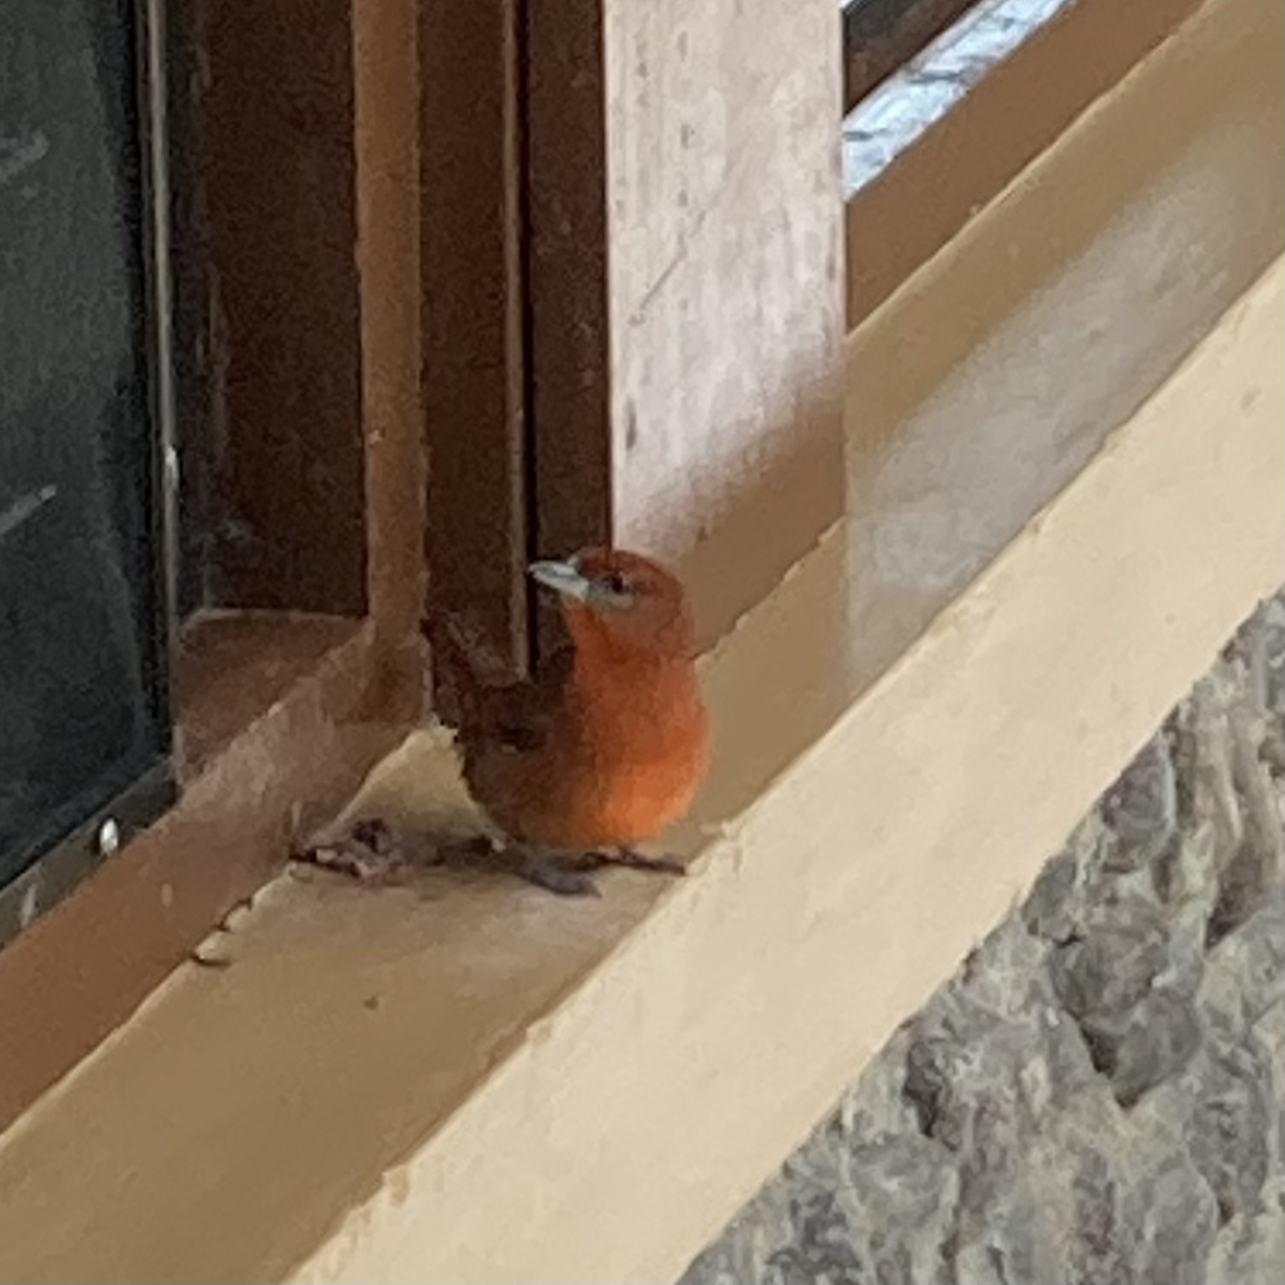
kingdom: Animalia
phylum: Chordata
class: Aves
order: Passeriformes
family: Cardinalidae
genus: Piranga
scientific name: Piranga flava
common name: Red tanager
